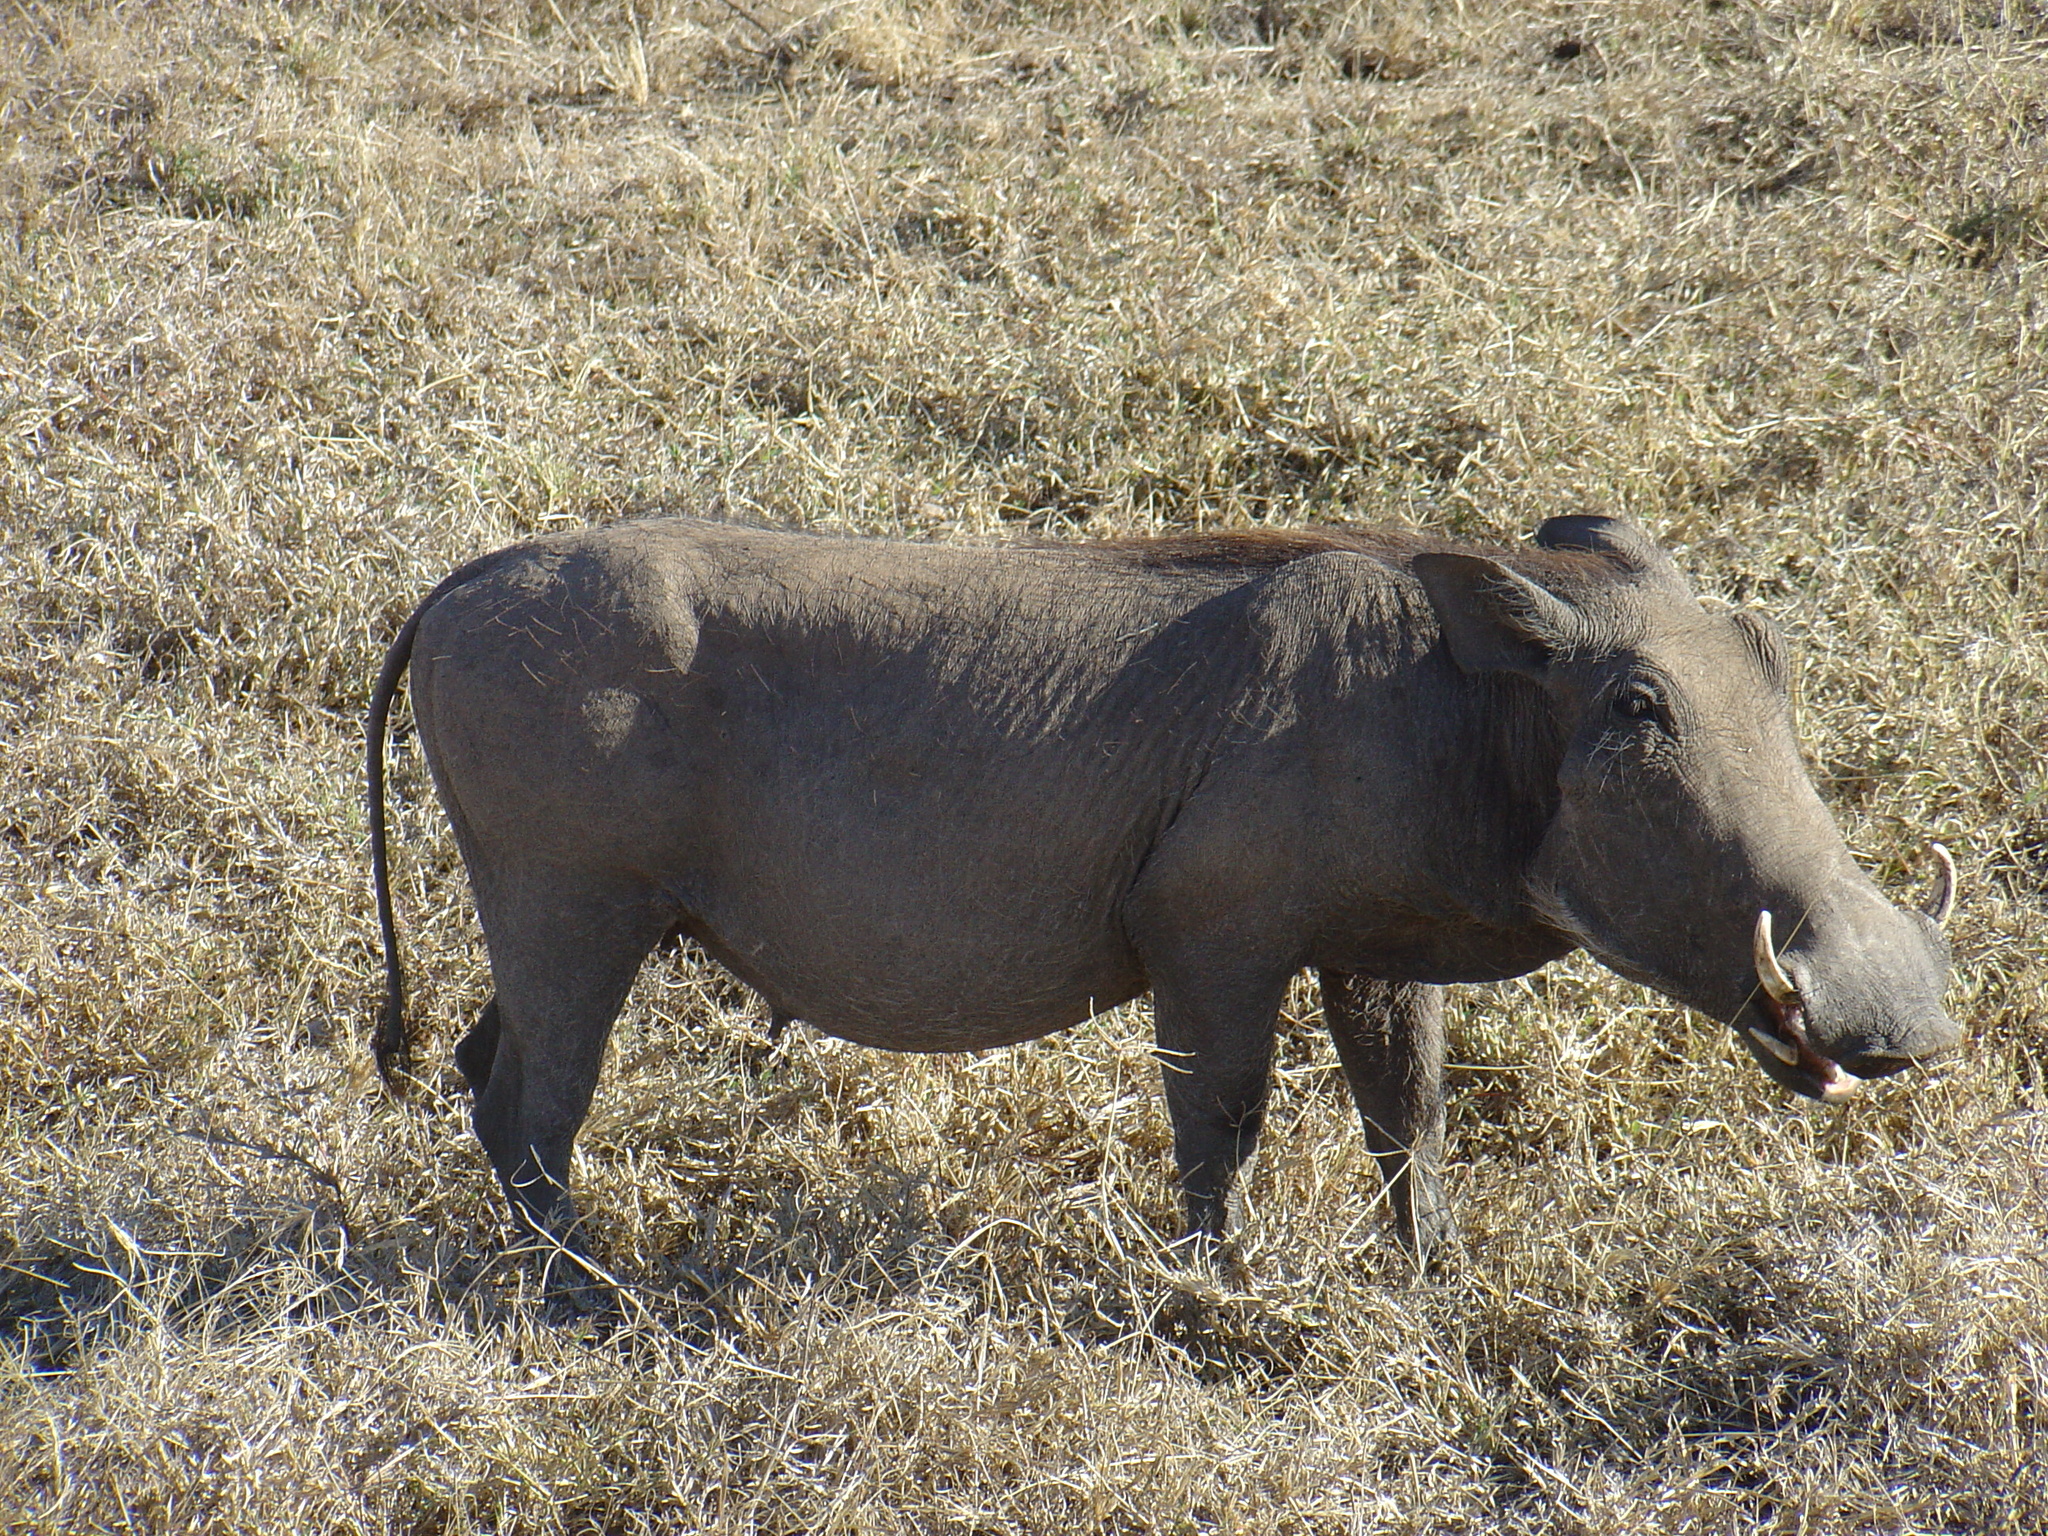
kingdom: Animalia
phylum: Chordata
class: Mammalia
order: Artiodactyla
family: Suidae
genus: Phacochoerus
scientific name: Phacochoerus africanus
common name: Common warthog
